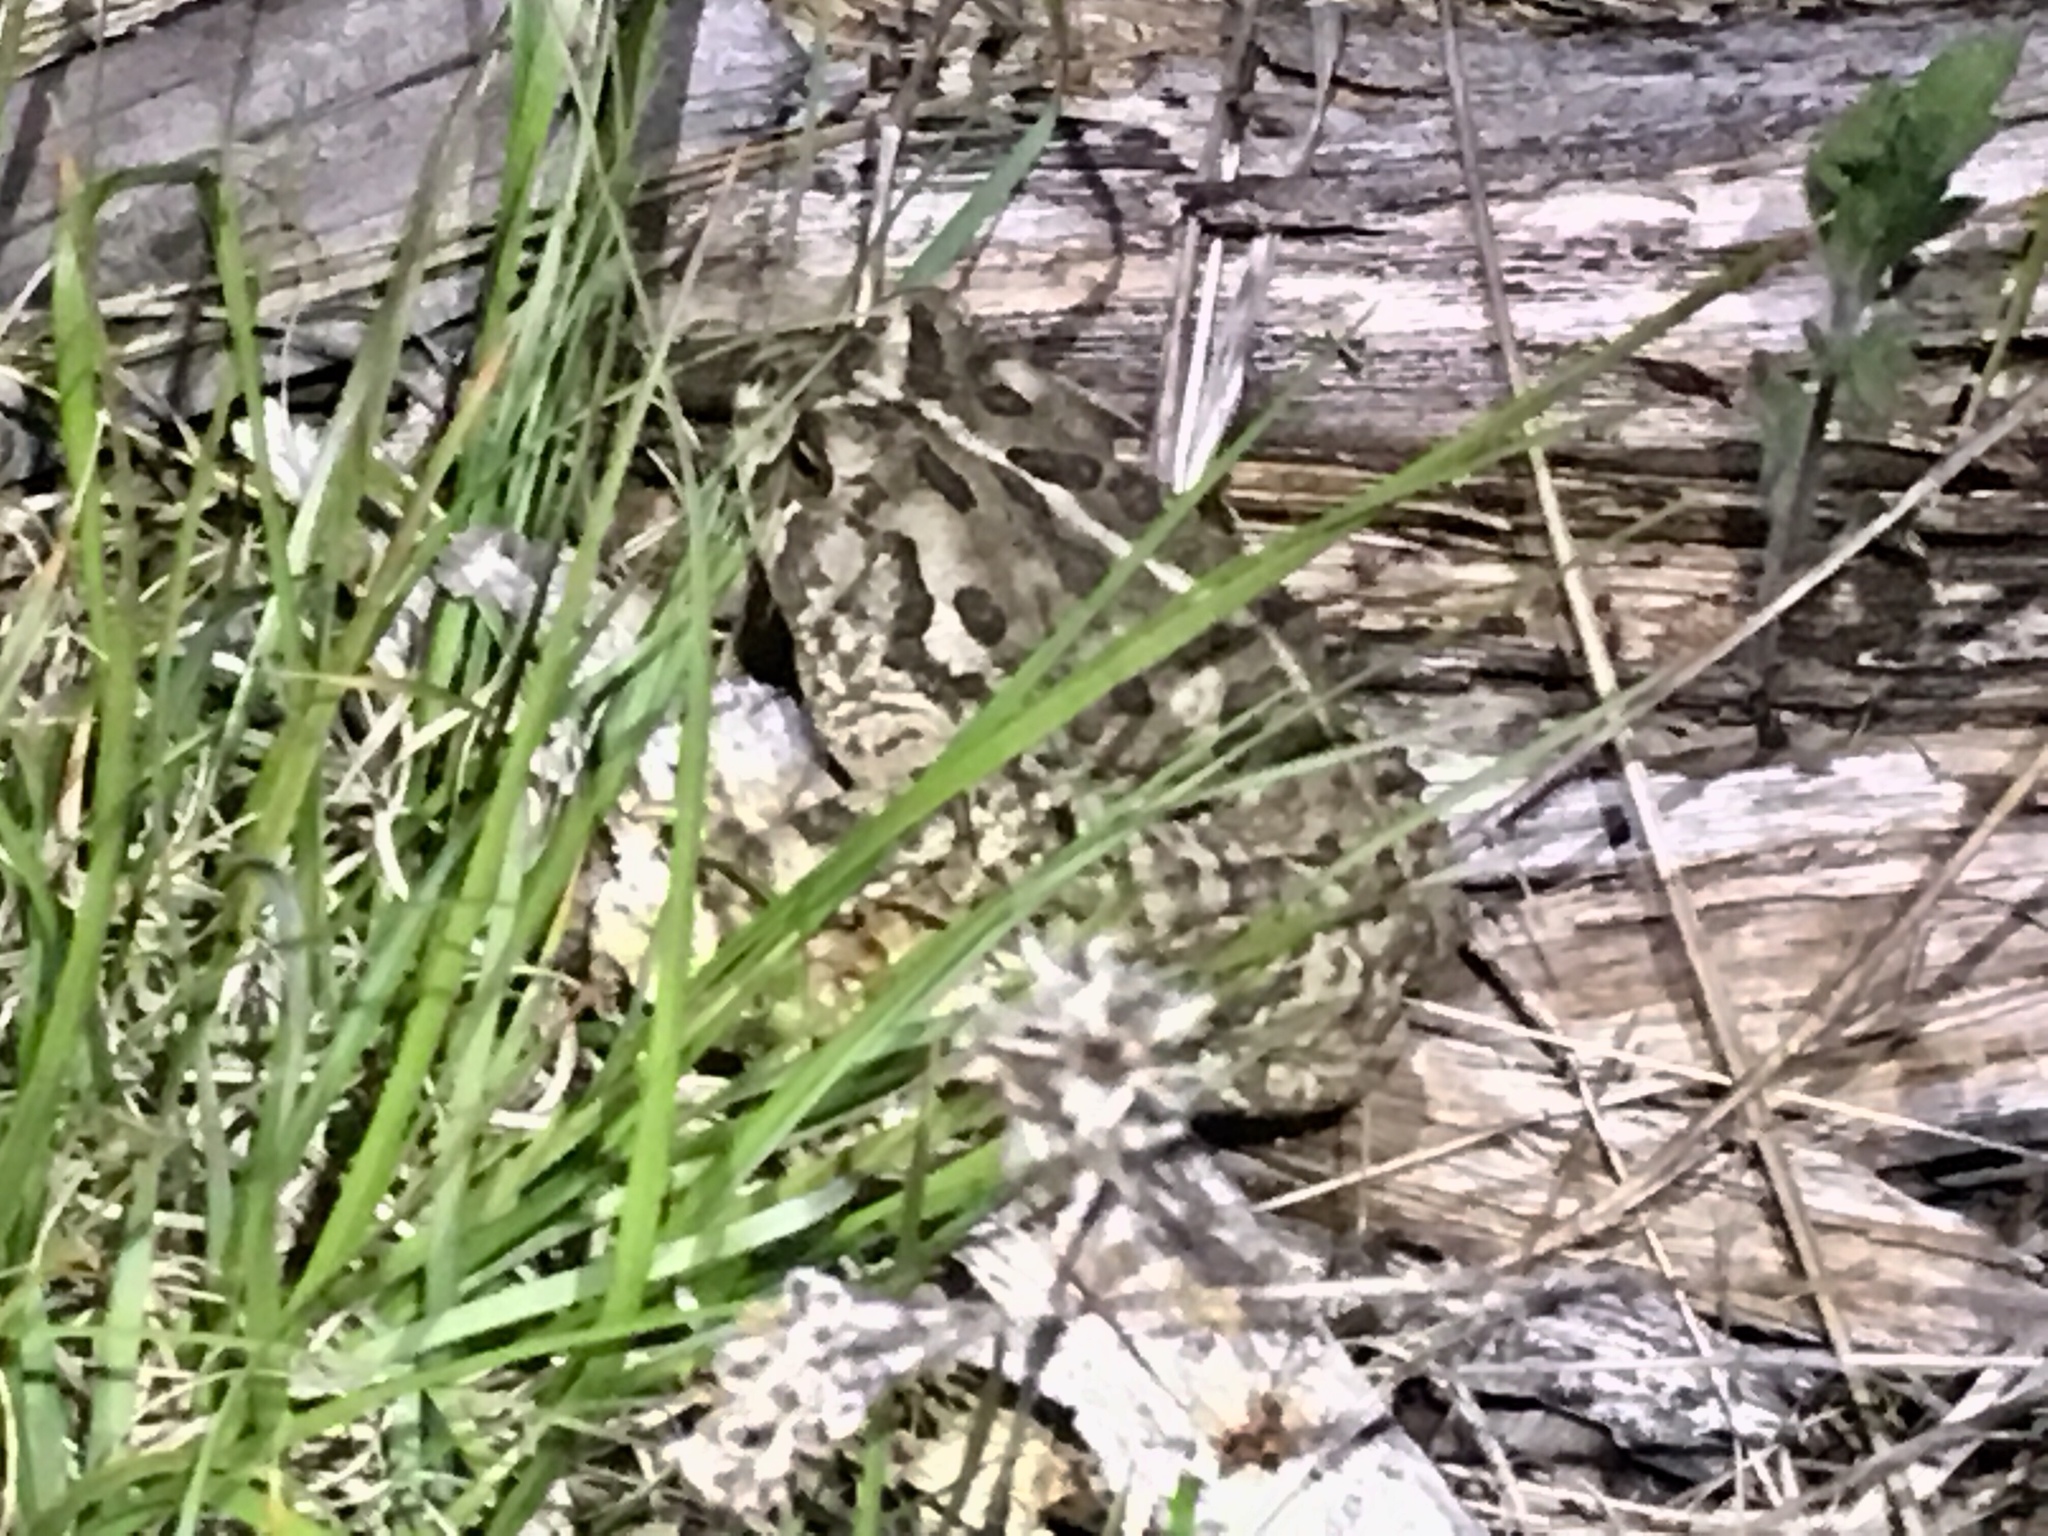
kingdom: Animalia
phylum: Chordata
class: Amphibia
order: Anura
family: Bufonidae
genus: Anaxyrus
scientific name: Anaxyrus woodhousii
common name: Woodhouse's toad
